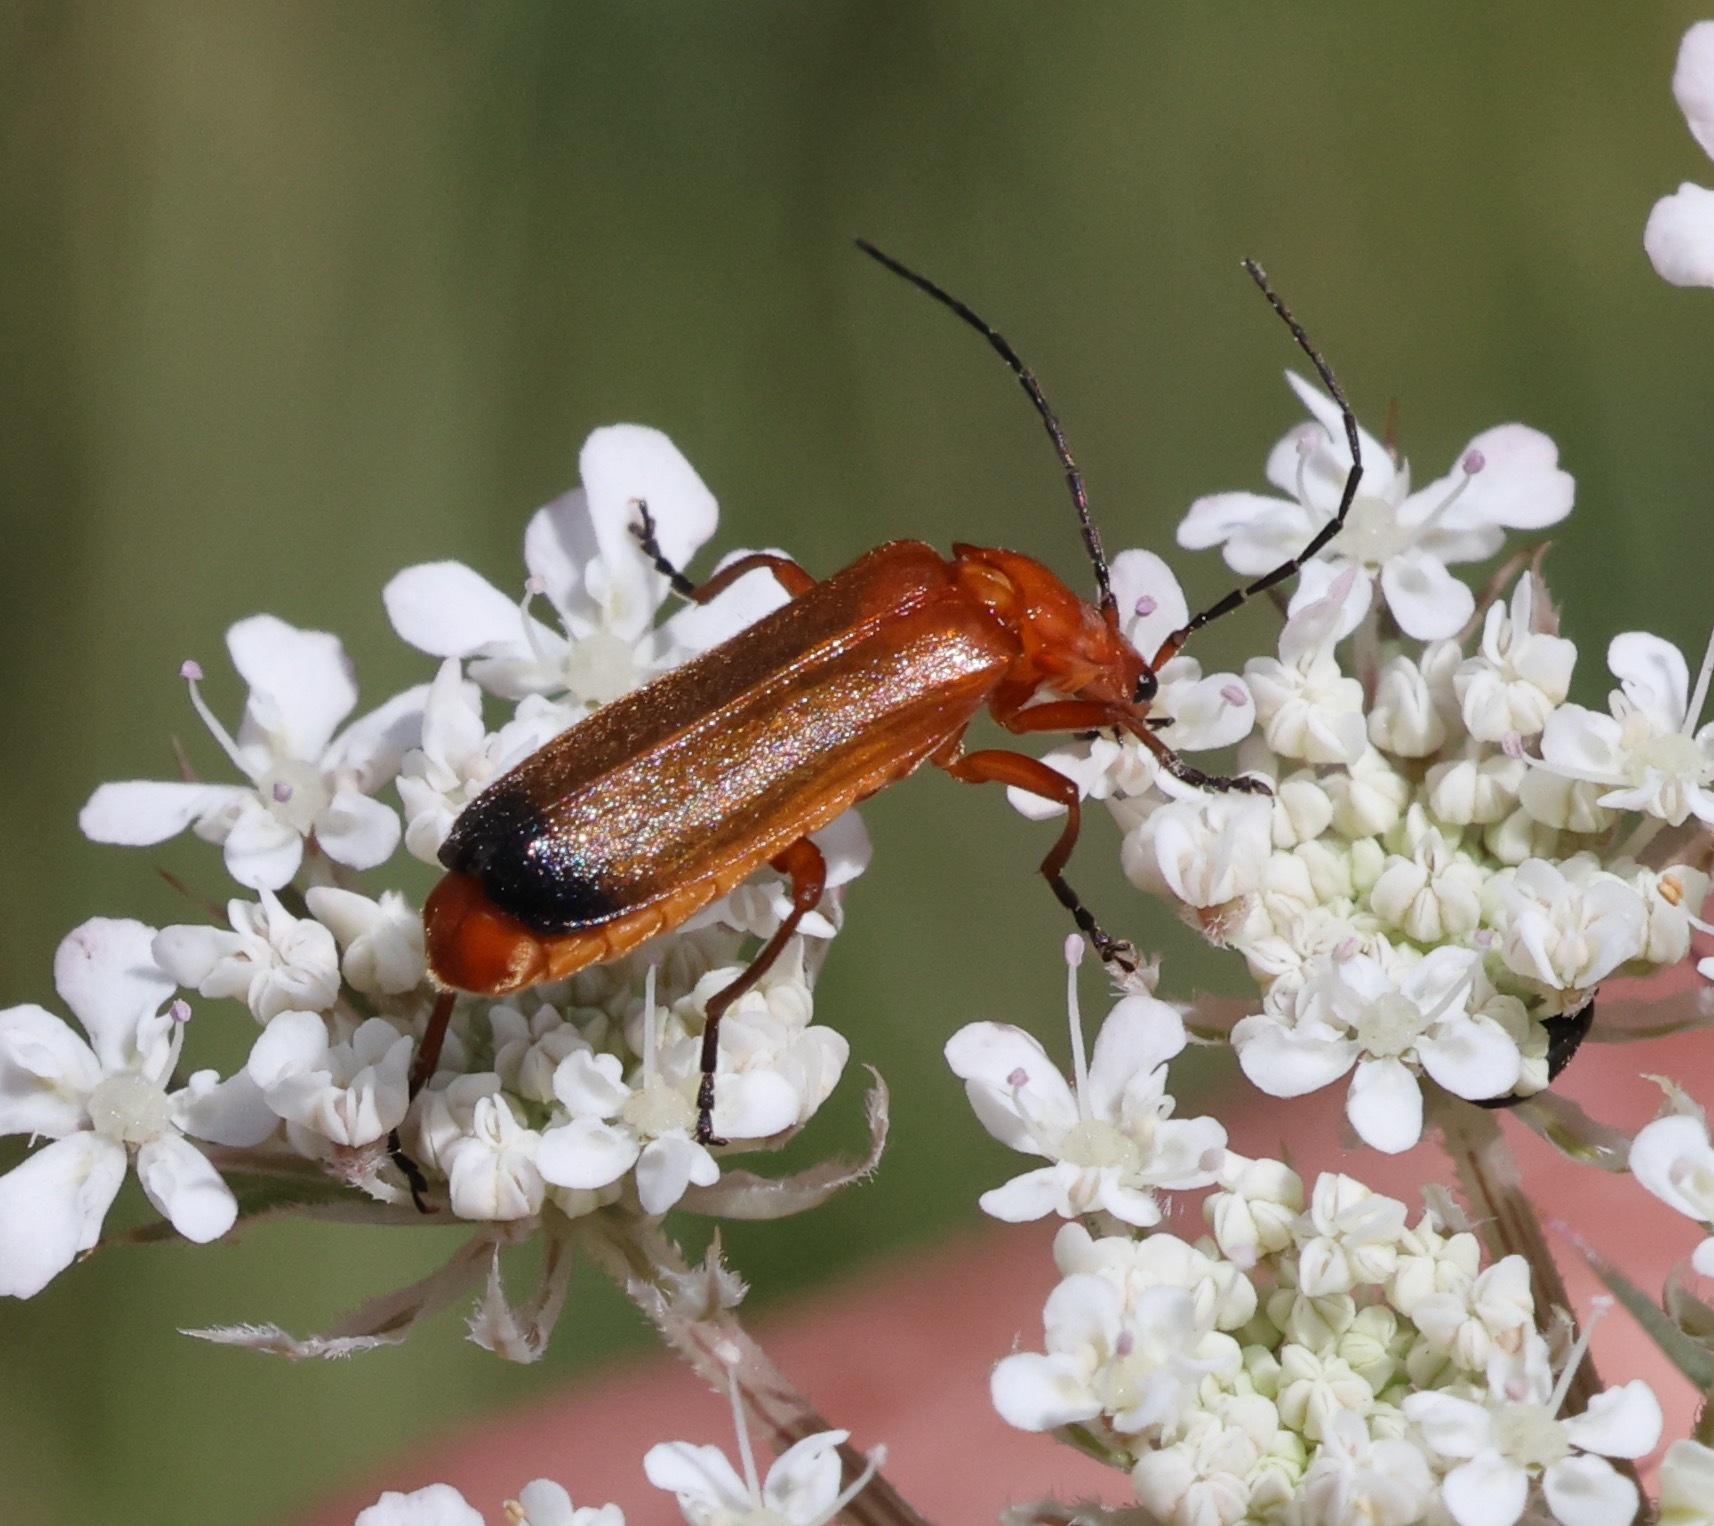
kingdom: Animalia
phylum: Arthropoda
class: Insecta
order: Coleoptera
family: Cantharidae
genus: Rhagonycha
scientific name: Rhagonycha fulva
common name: Common red soldier beetle
